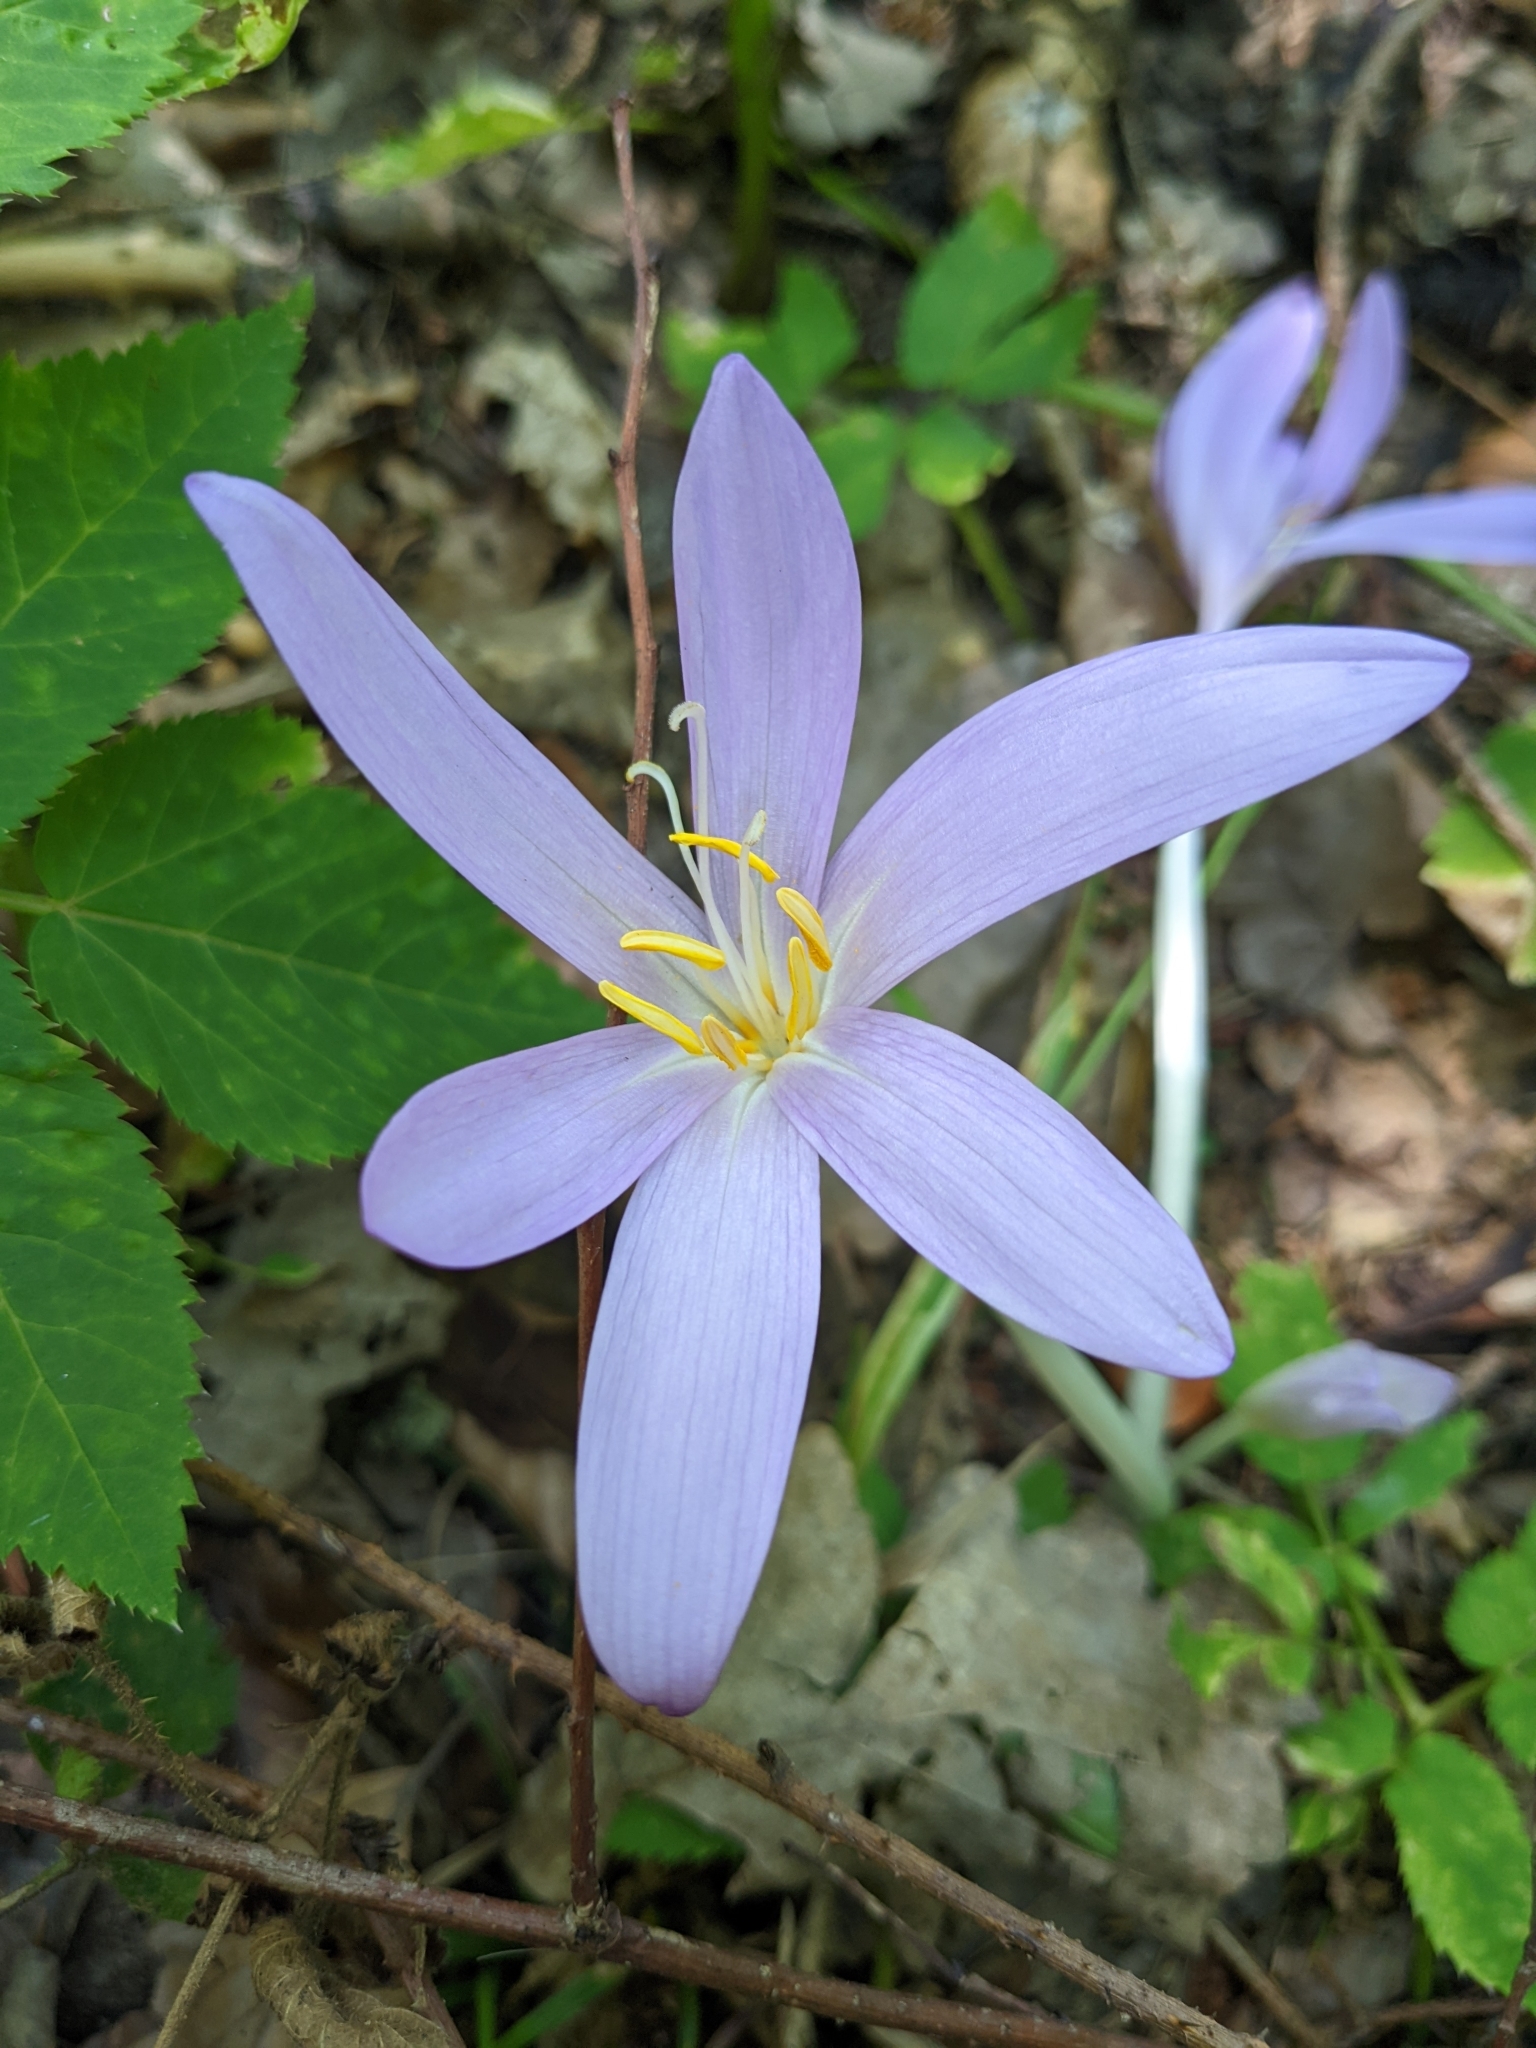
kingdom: Plantae
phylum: Tracheophyta
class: Liliopsida
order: Liliales
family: Colchicaceae
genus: Colchicum
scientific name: Colchicum autumnale
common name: Autumn crocus
